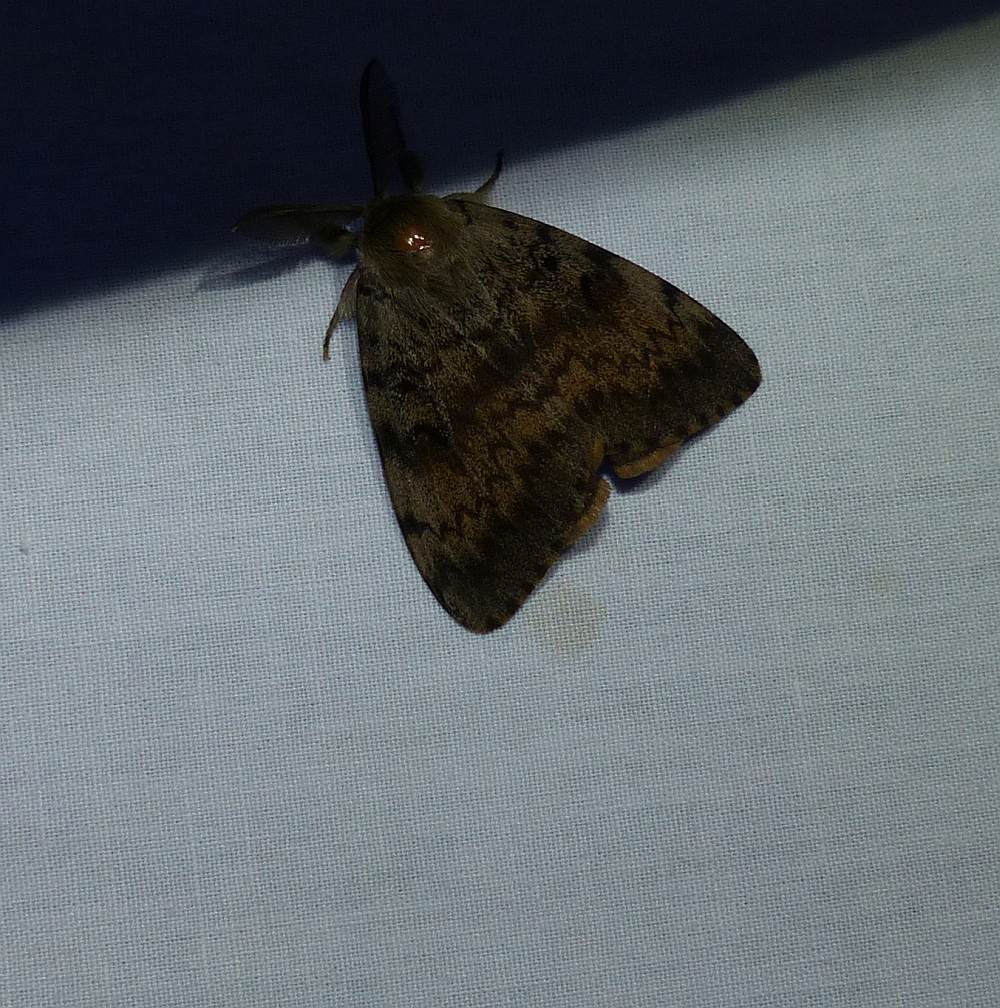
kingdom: Animalia
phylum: Arthropoda
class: Insecta
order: Lepidoptera
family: Erebidae
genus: Lymantria
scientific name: Lymantria dispar
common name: Gypsy moth
